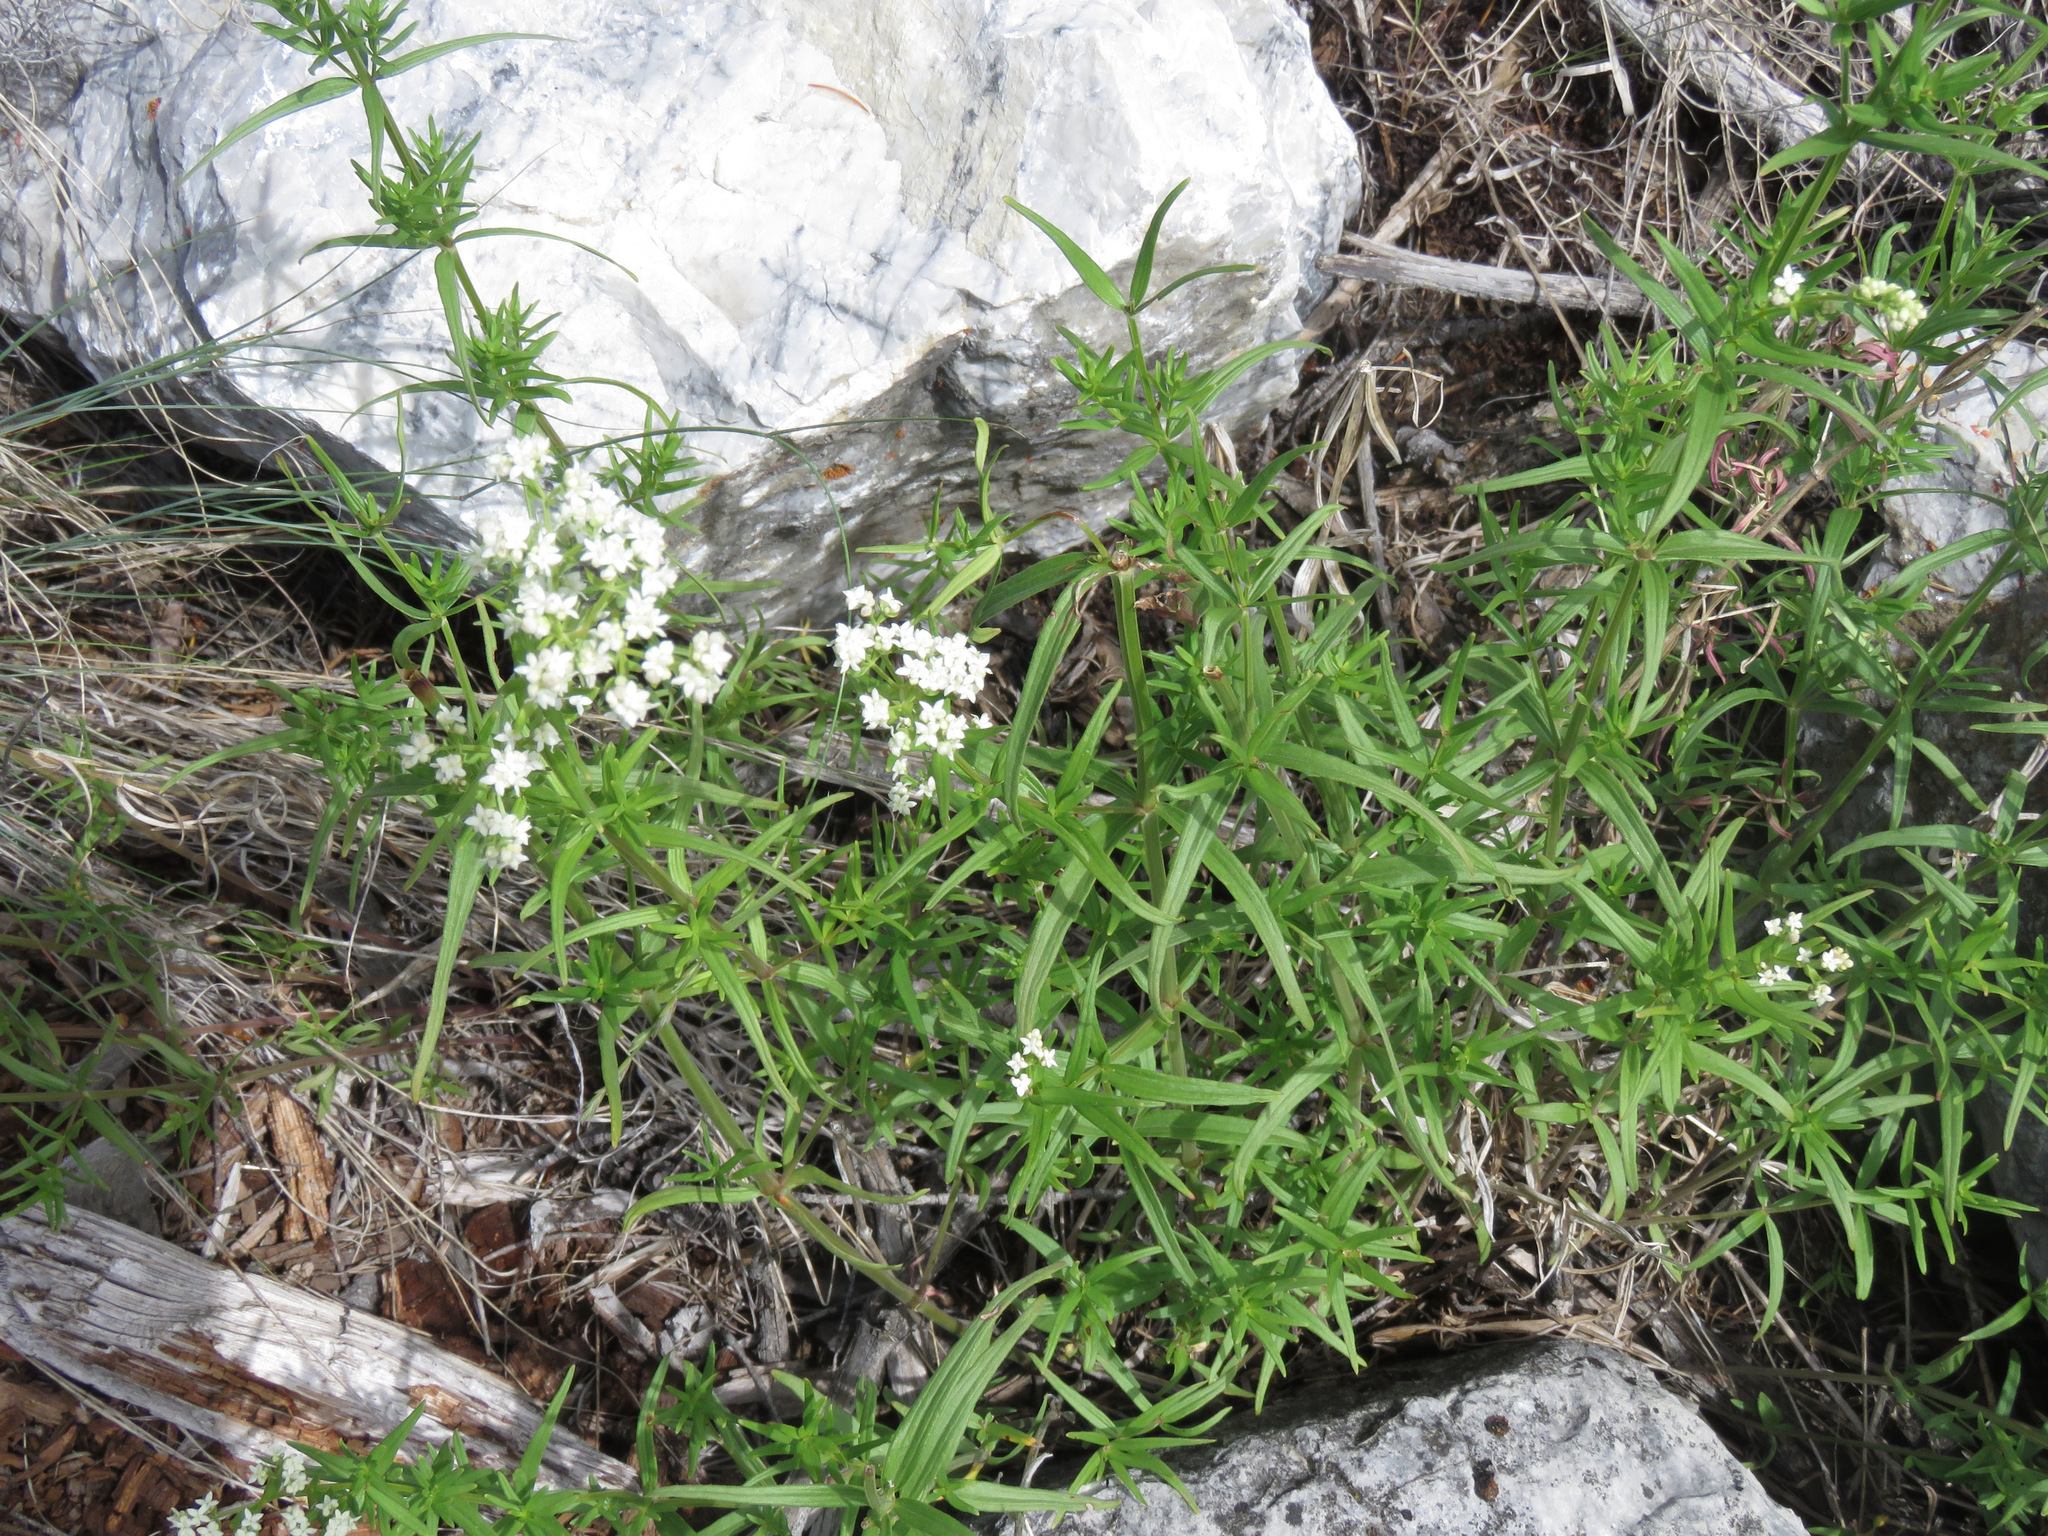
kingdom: Plantae
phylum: Tracheophyta
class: Magnoliopsida
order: Gentianales
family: Rubiaceae
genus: Galium
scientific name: Galium boreale
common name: Northern bedstraw
